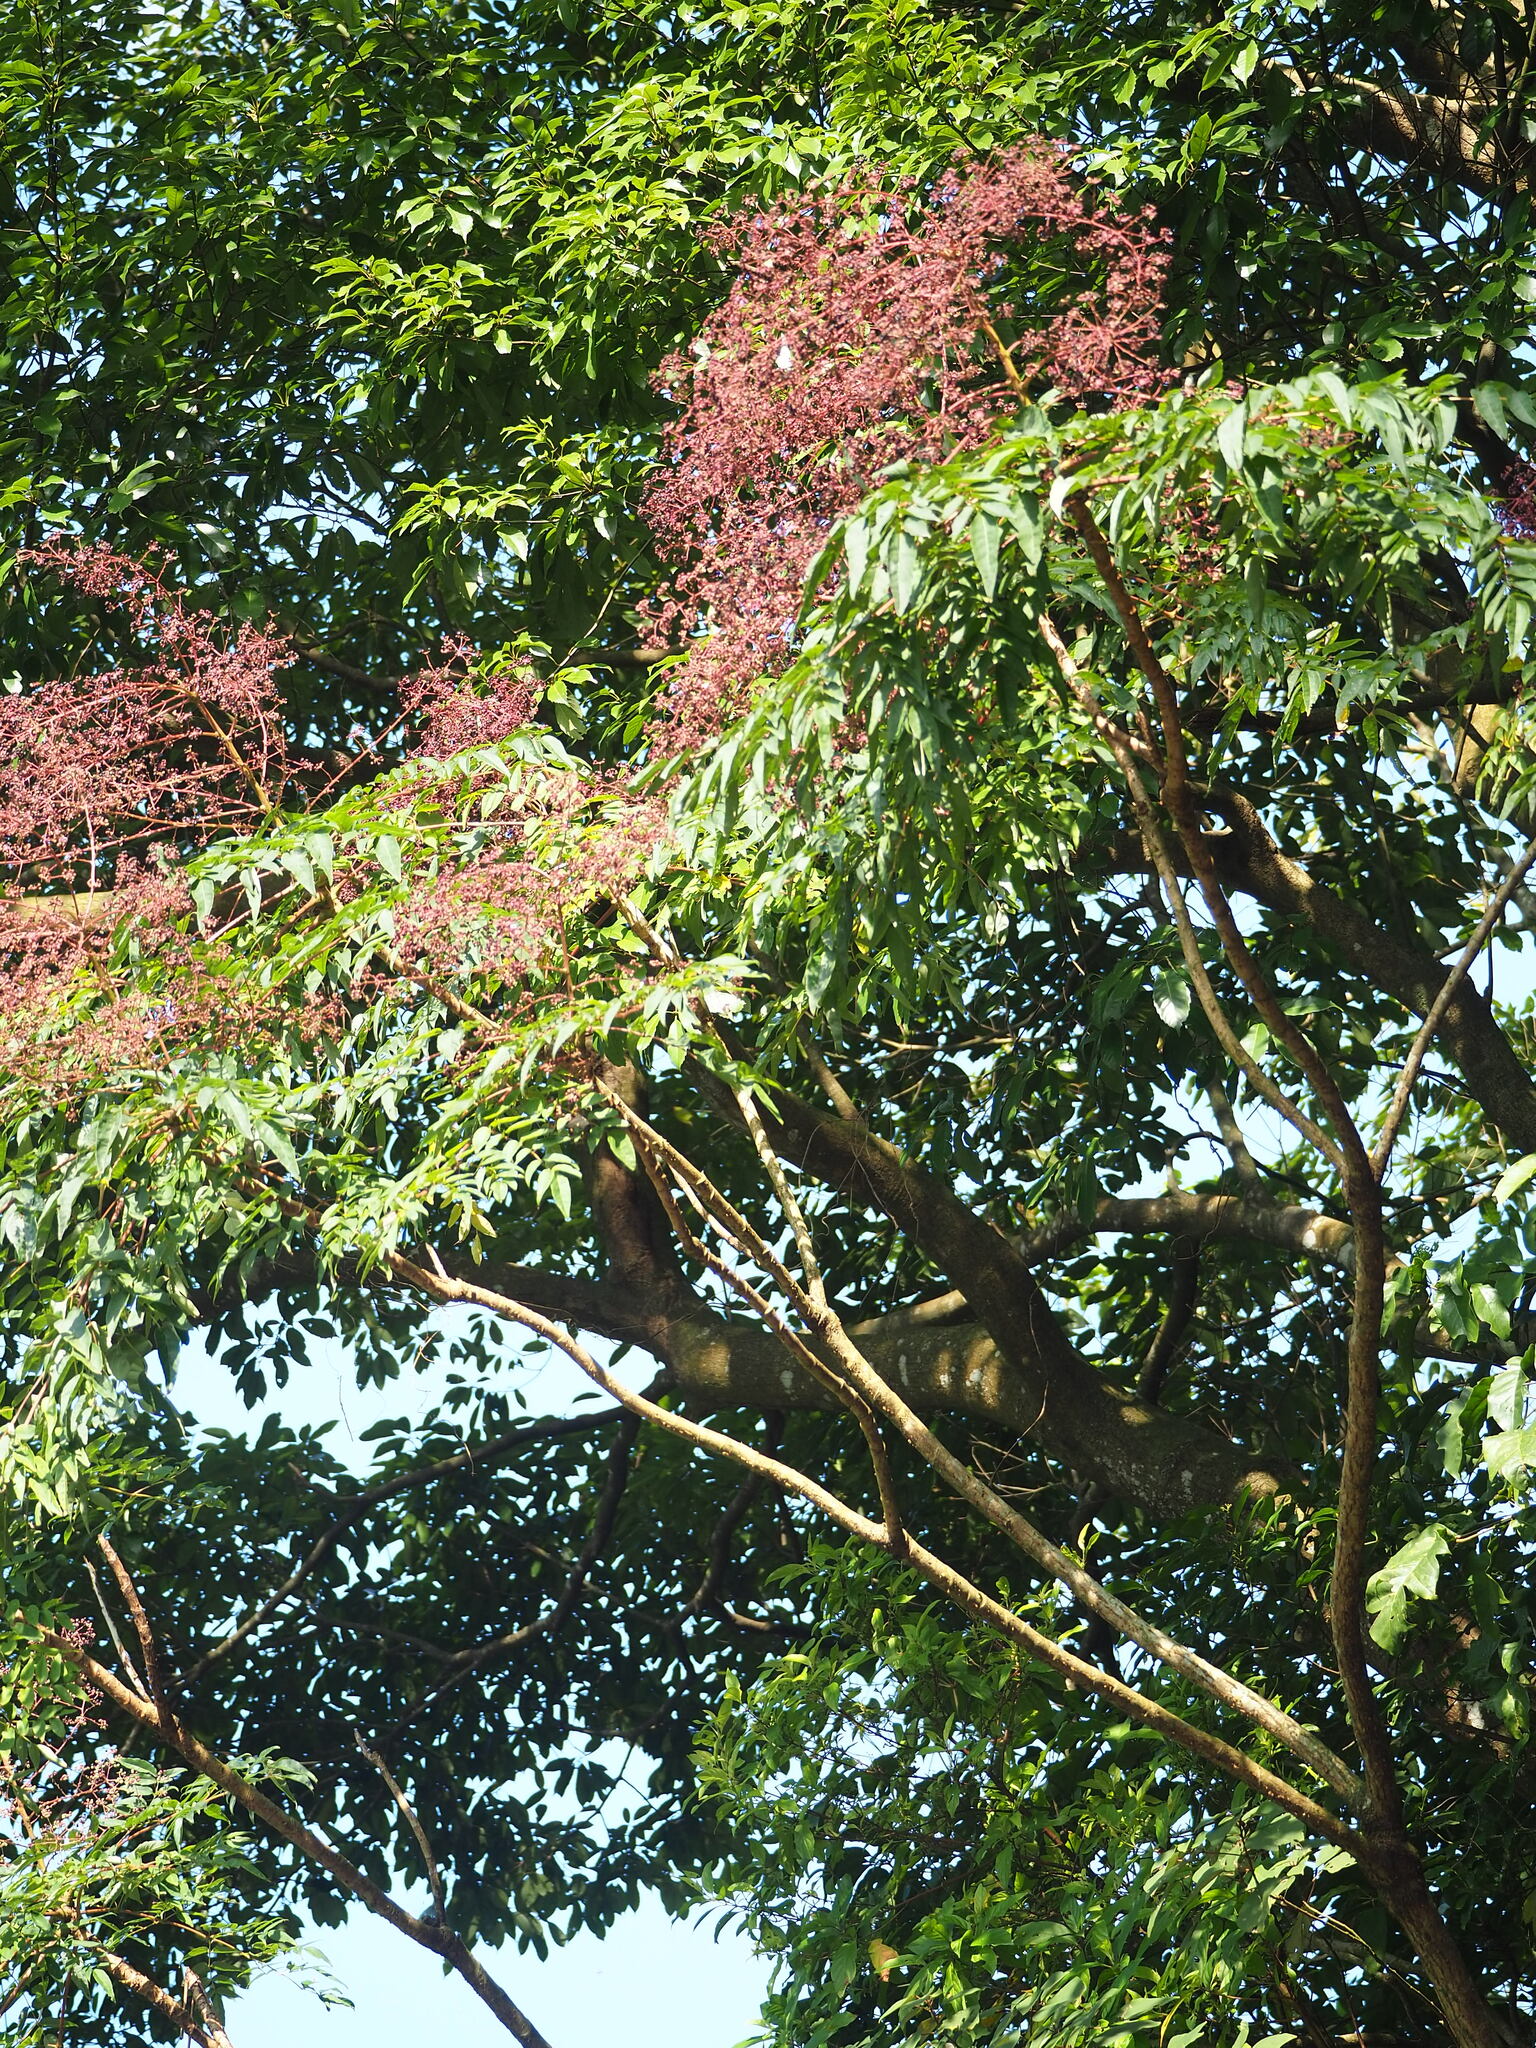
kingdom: Plantae
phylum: Tracheophyta
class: Magnoliopsida
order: Apiales
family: Araliaceae
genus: Aralia
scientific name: Aralia bipinnata
